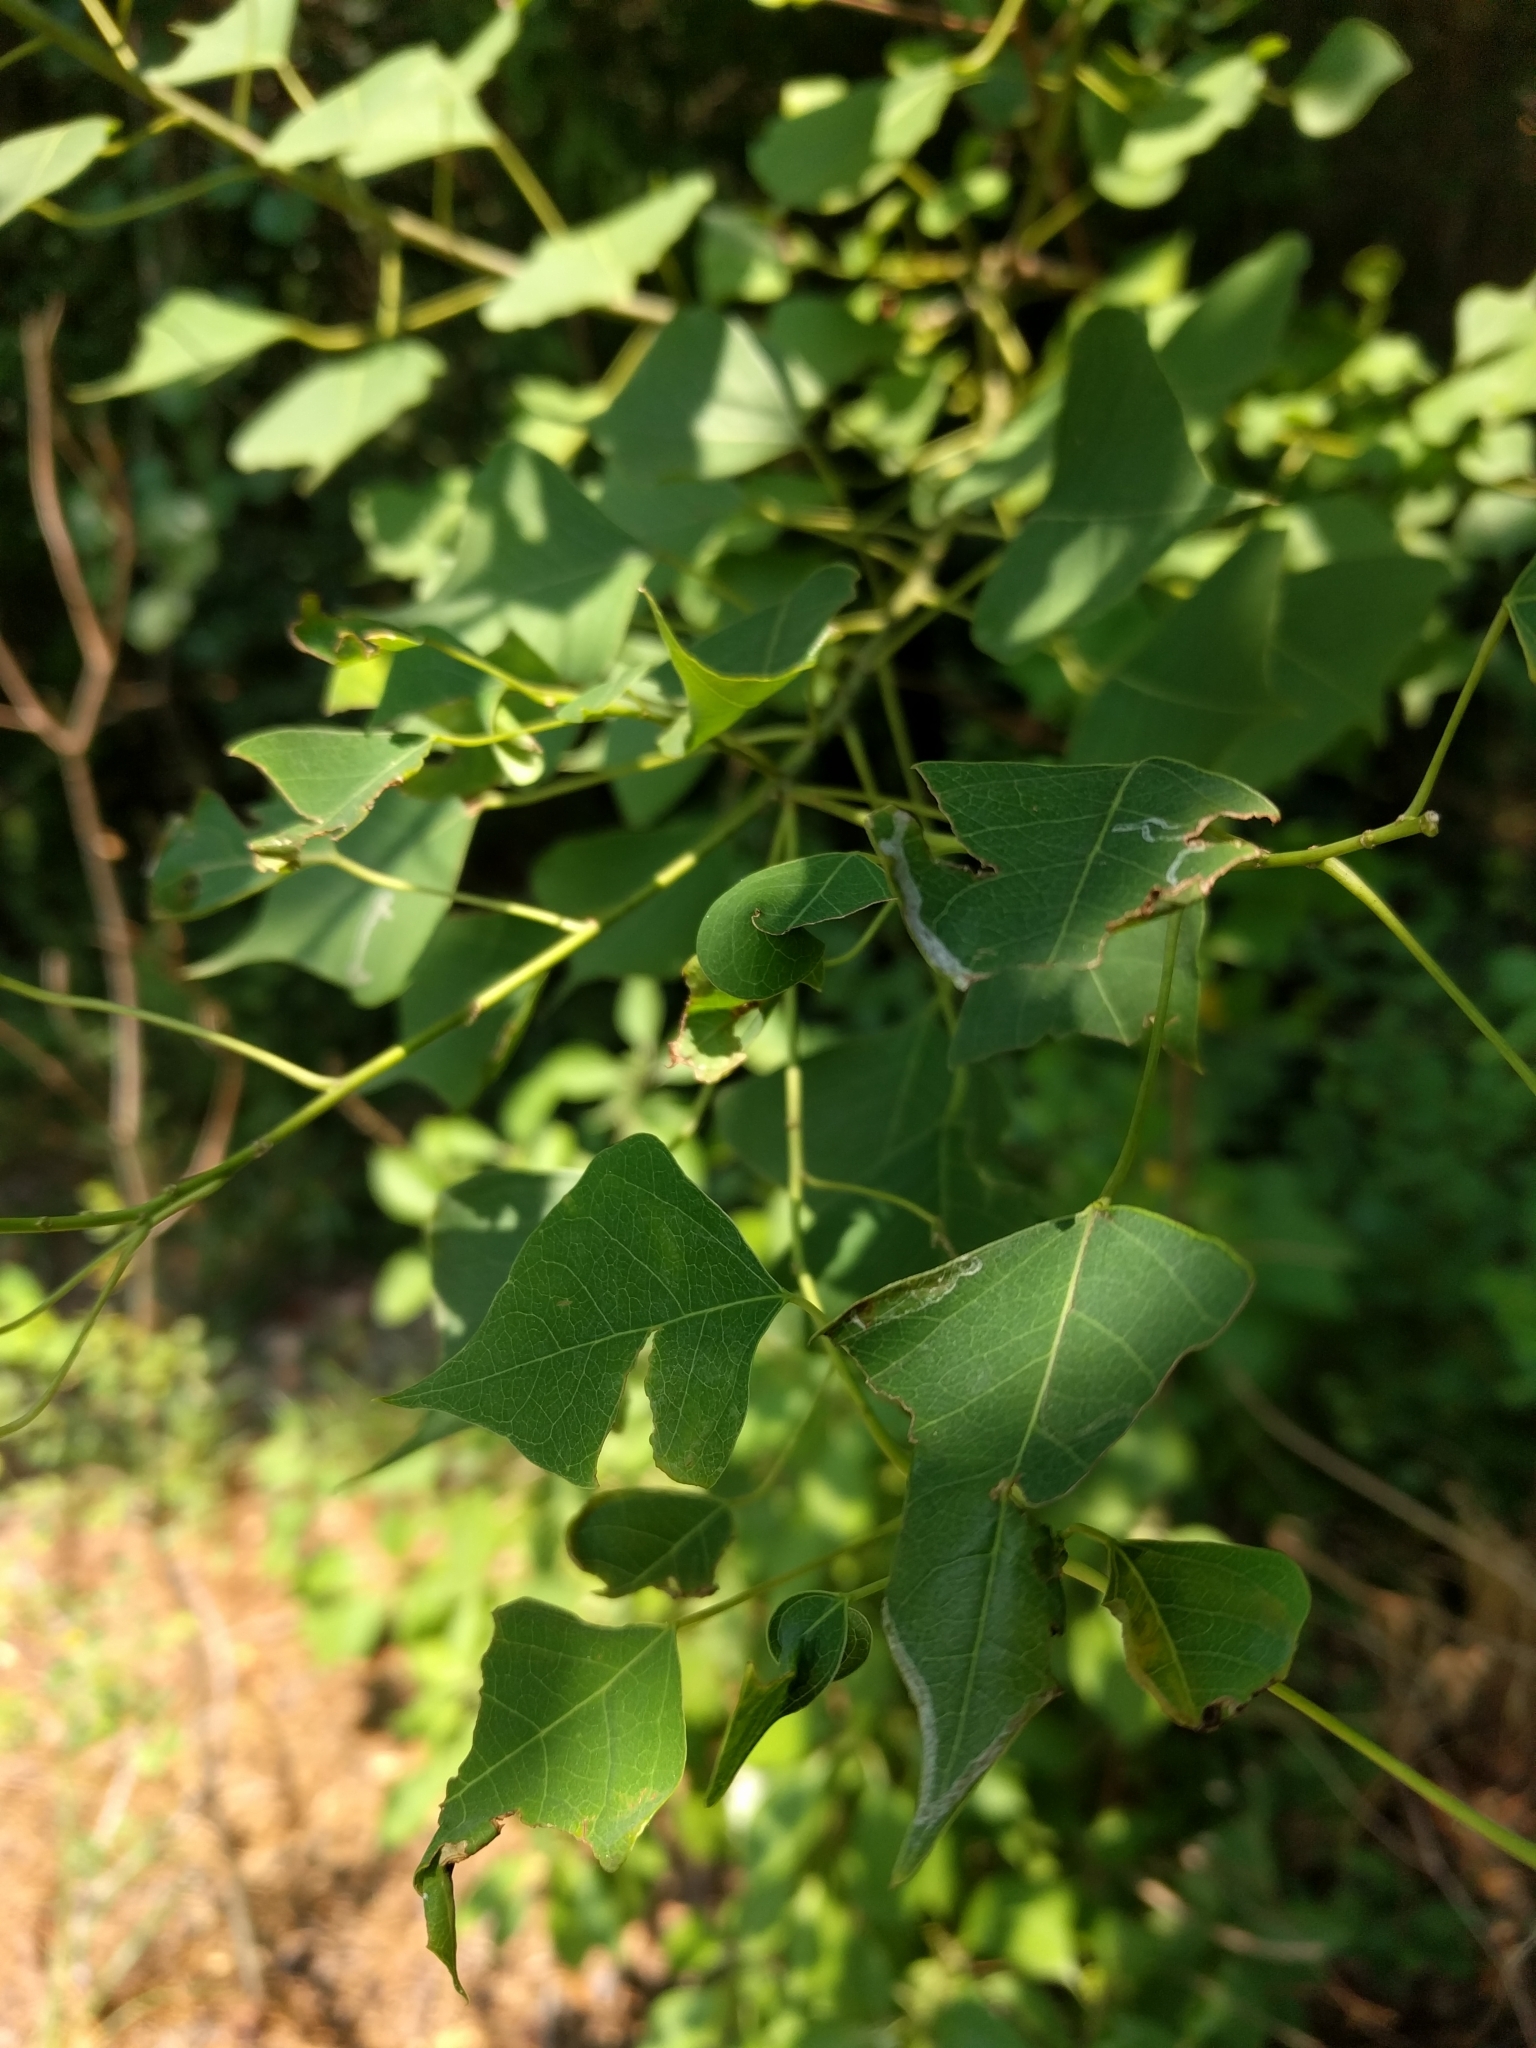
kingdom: Animalia
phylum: Arthropoda
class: Insecta
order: Lepidoptera
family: Gracillariidae
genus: Caloptilia
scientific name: Caloptilia triadicae
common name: Tallow leaf roller
